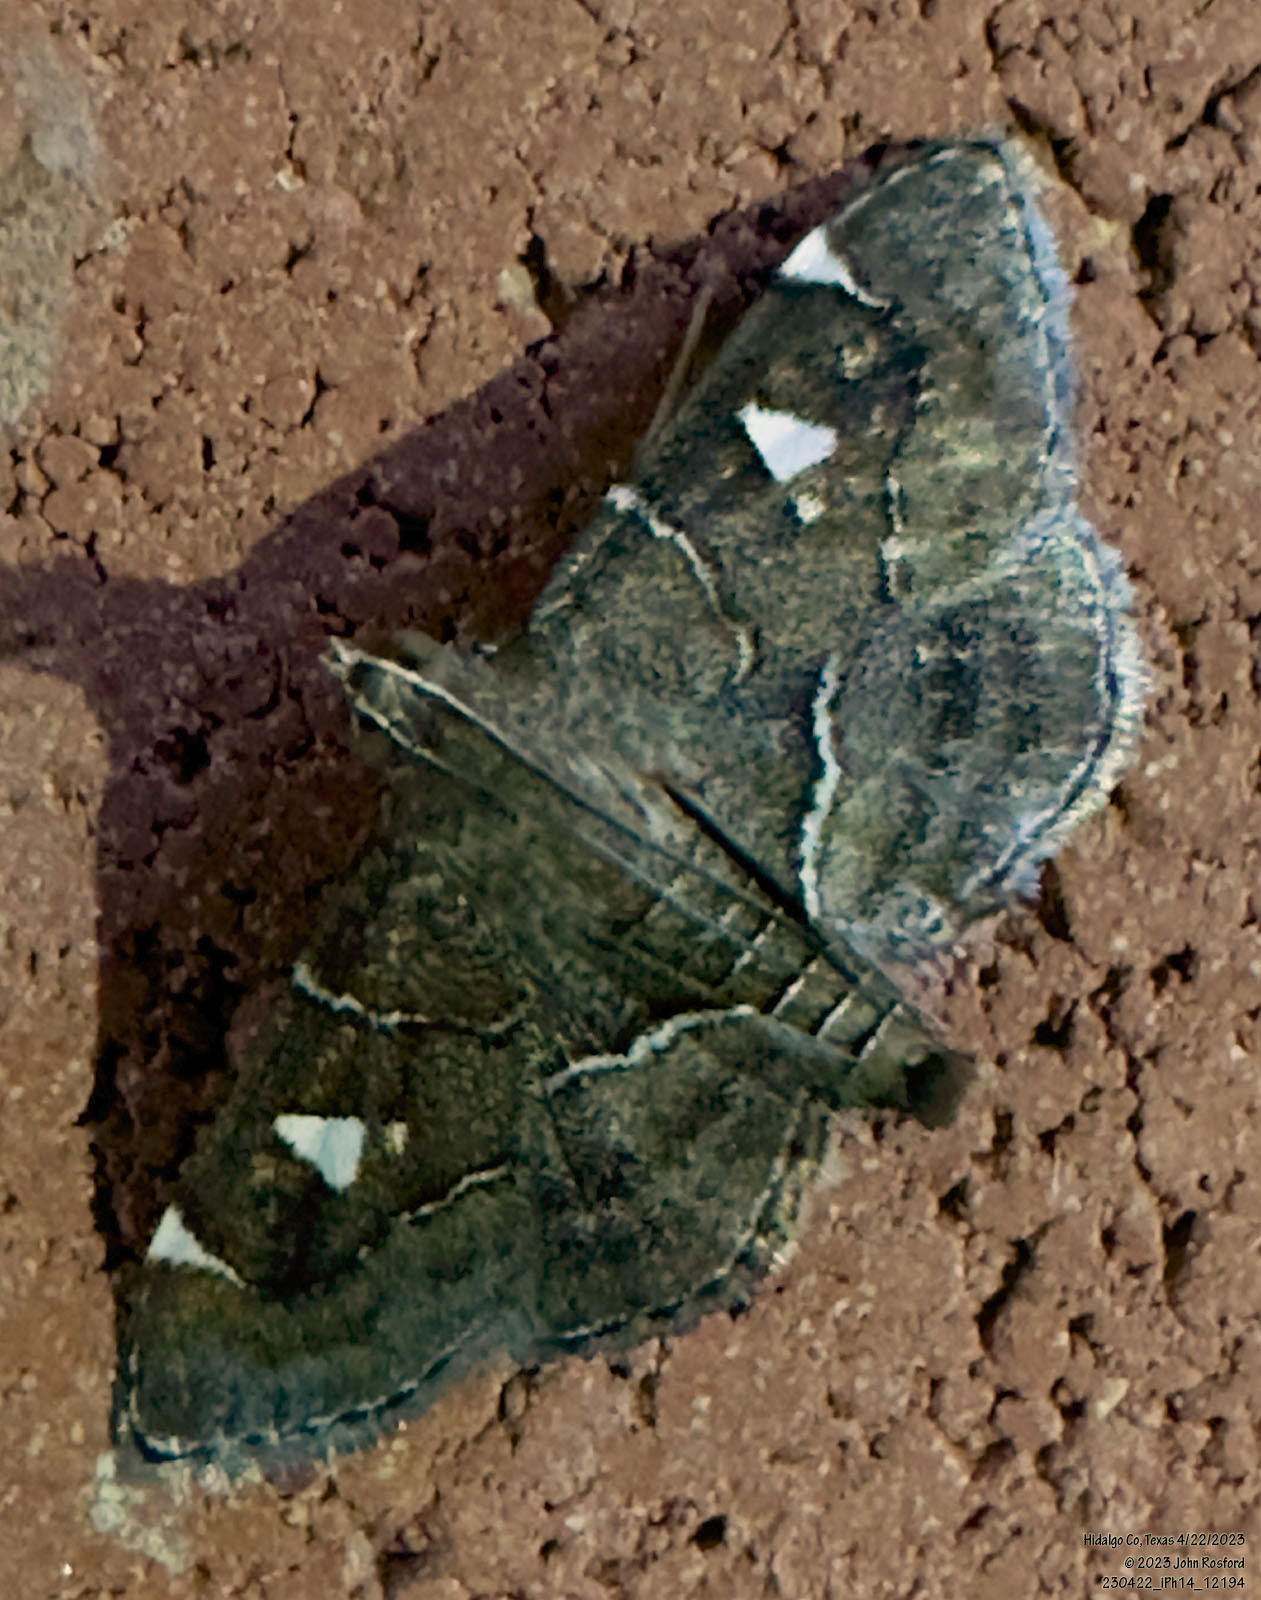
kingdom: Animalia
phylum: Arthropoda
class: Insecta
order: Lepidoptera
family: Crambidae
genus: Lamprosema
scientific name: Lamprosema victoriae
